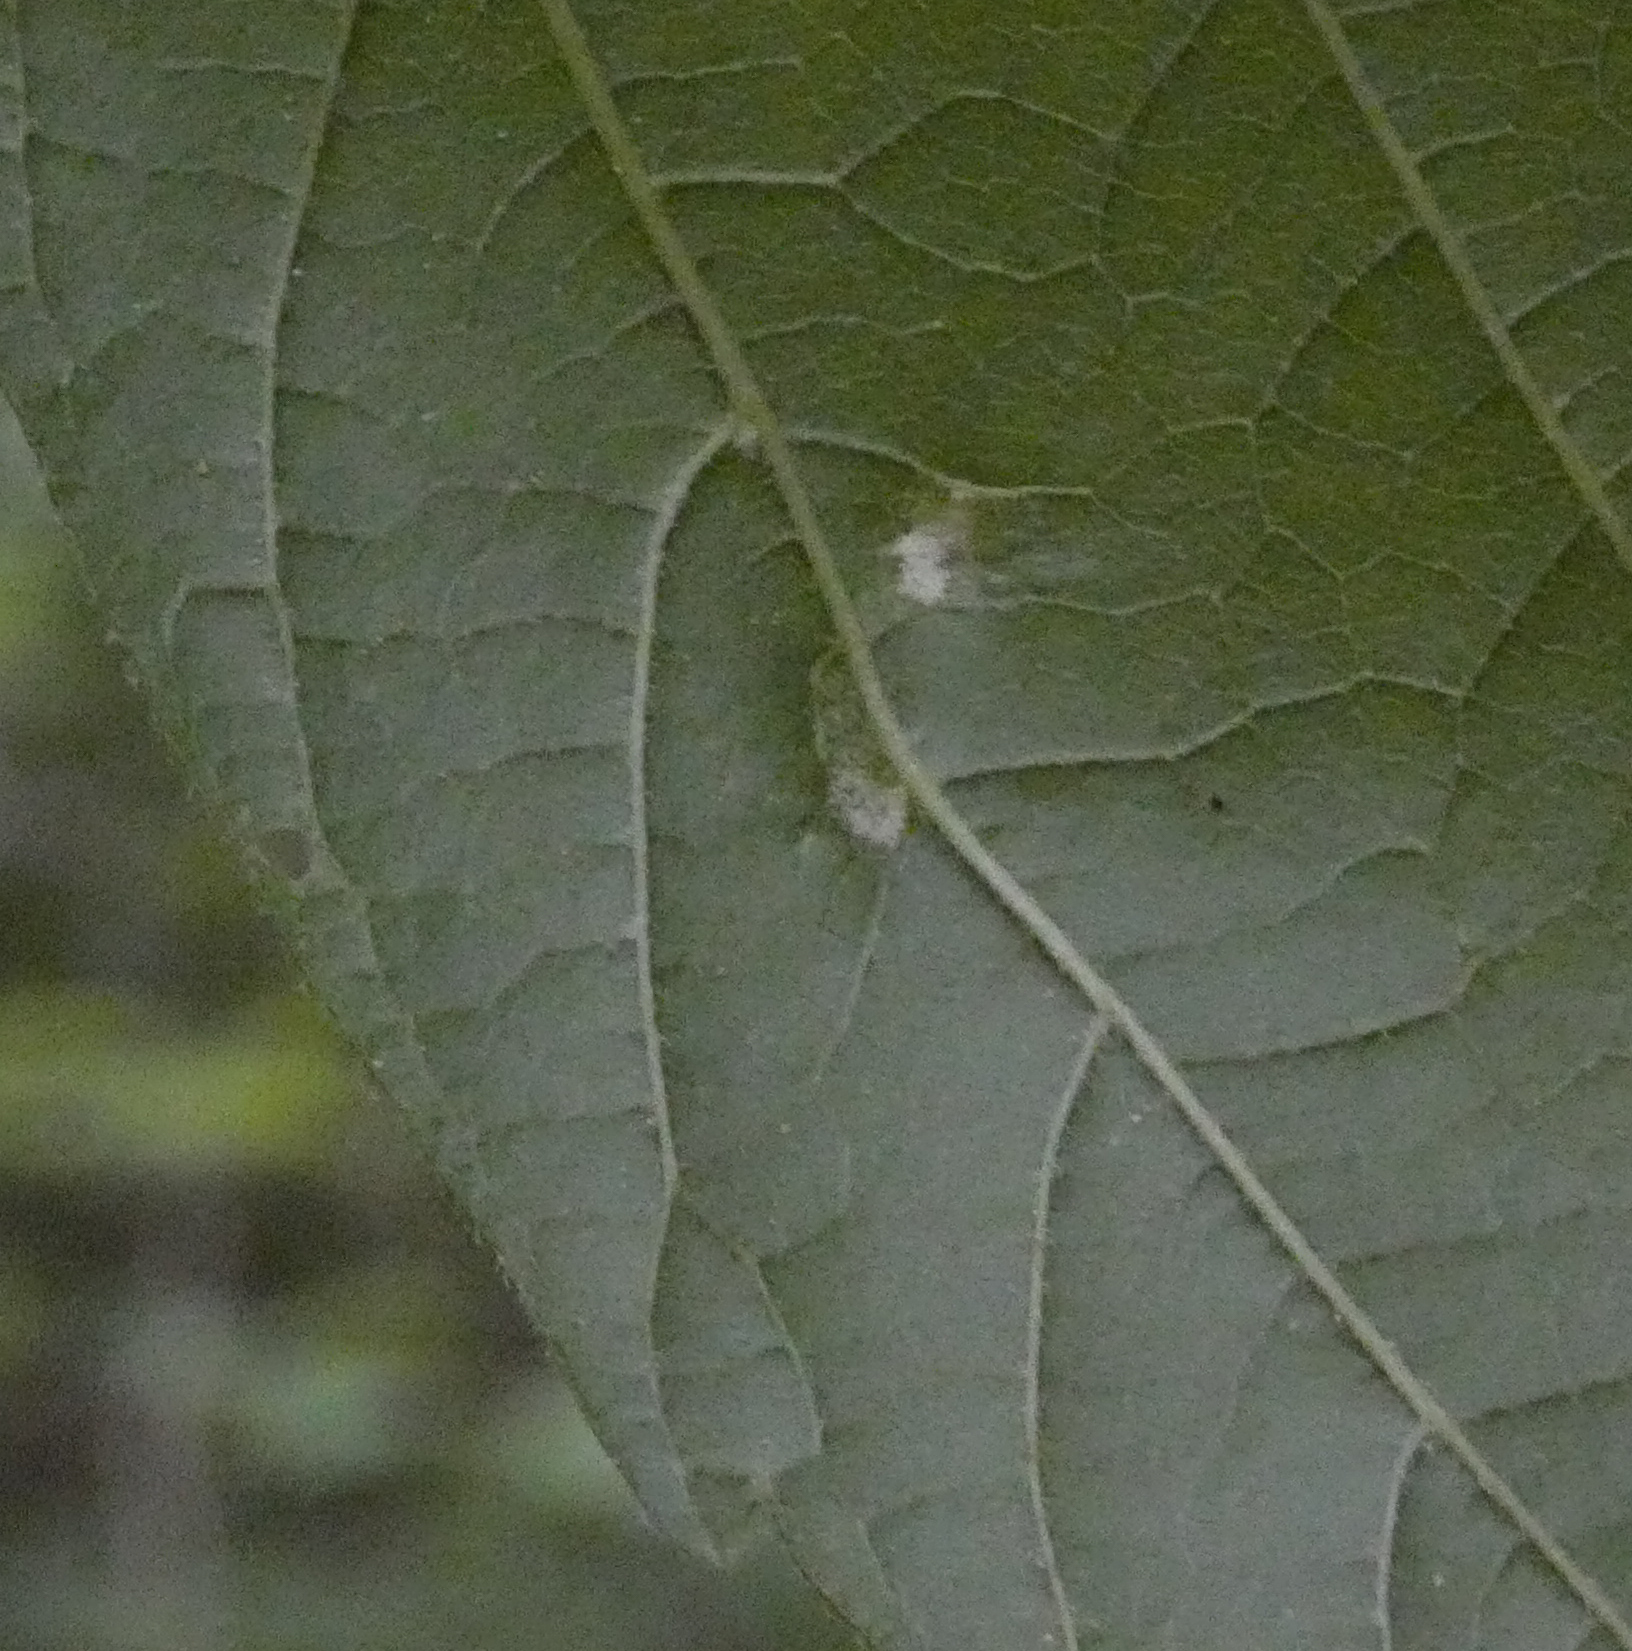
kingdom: Animalia
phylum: Arthropoda
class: Arachnida
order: Trombidiformes
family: Eriophyidae
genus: Aceria
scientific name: Aceria
